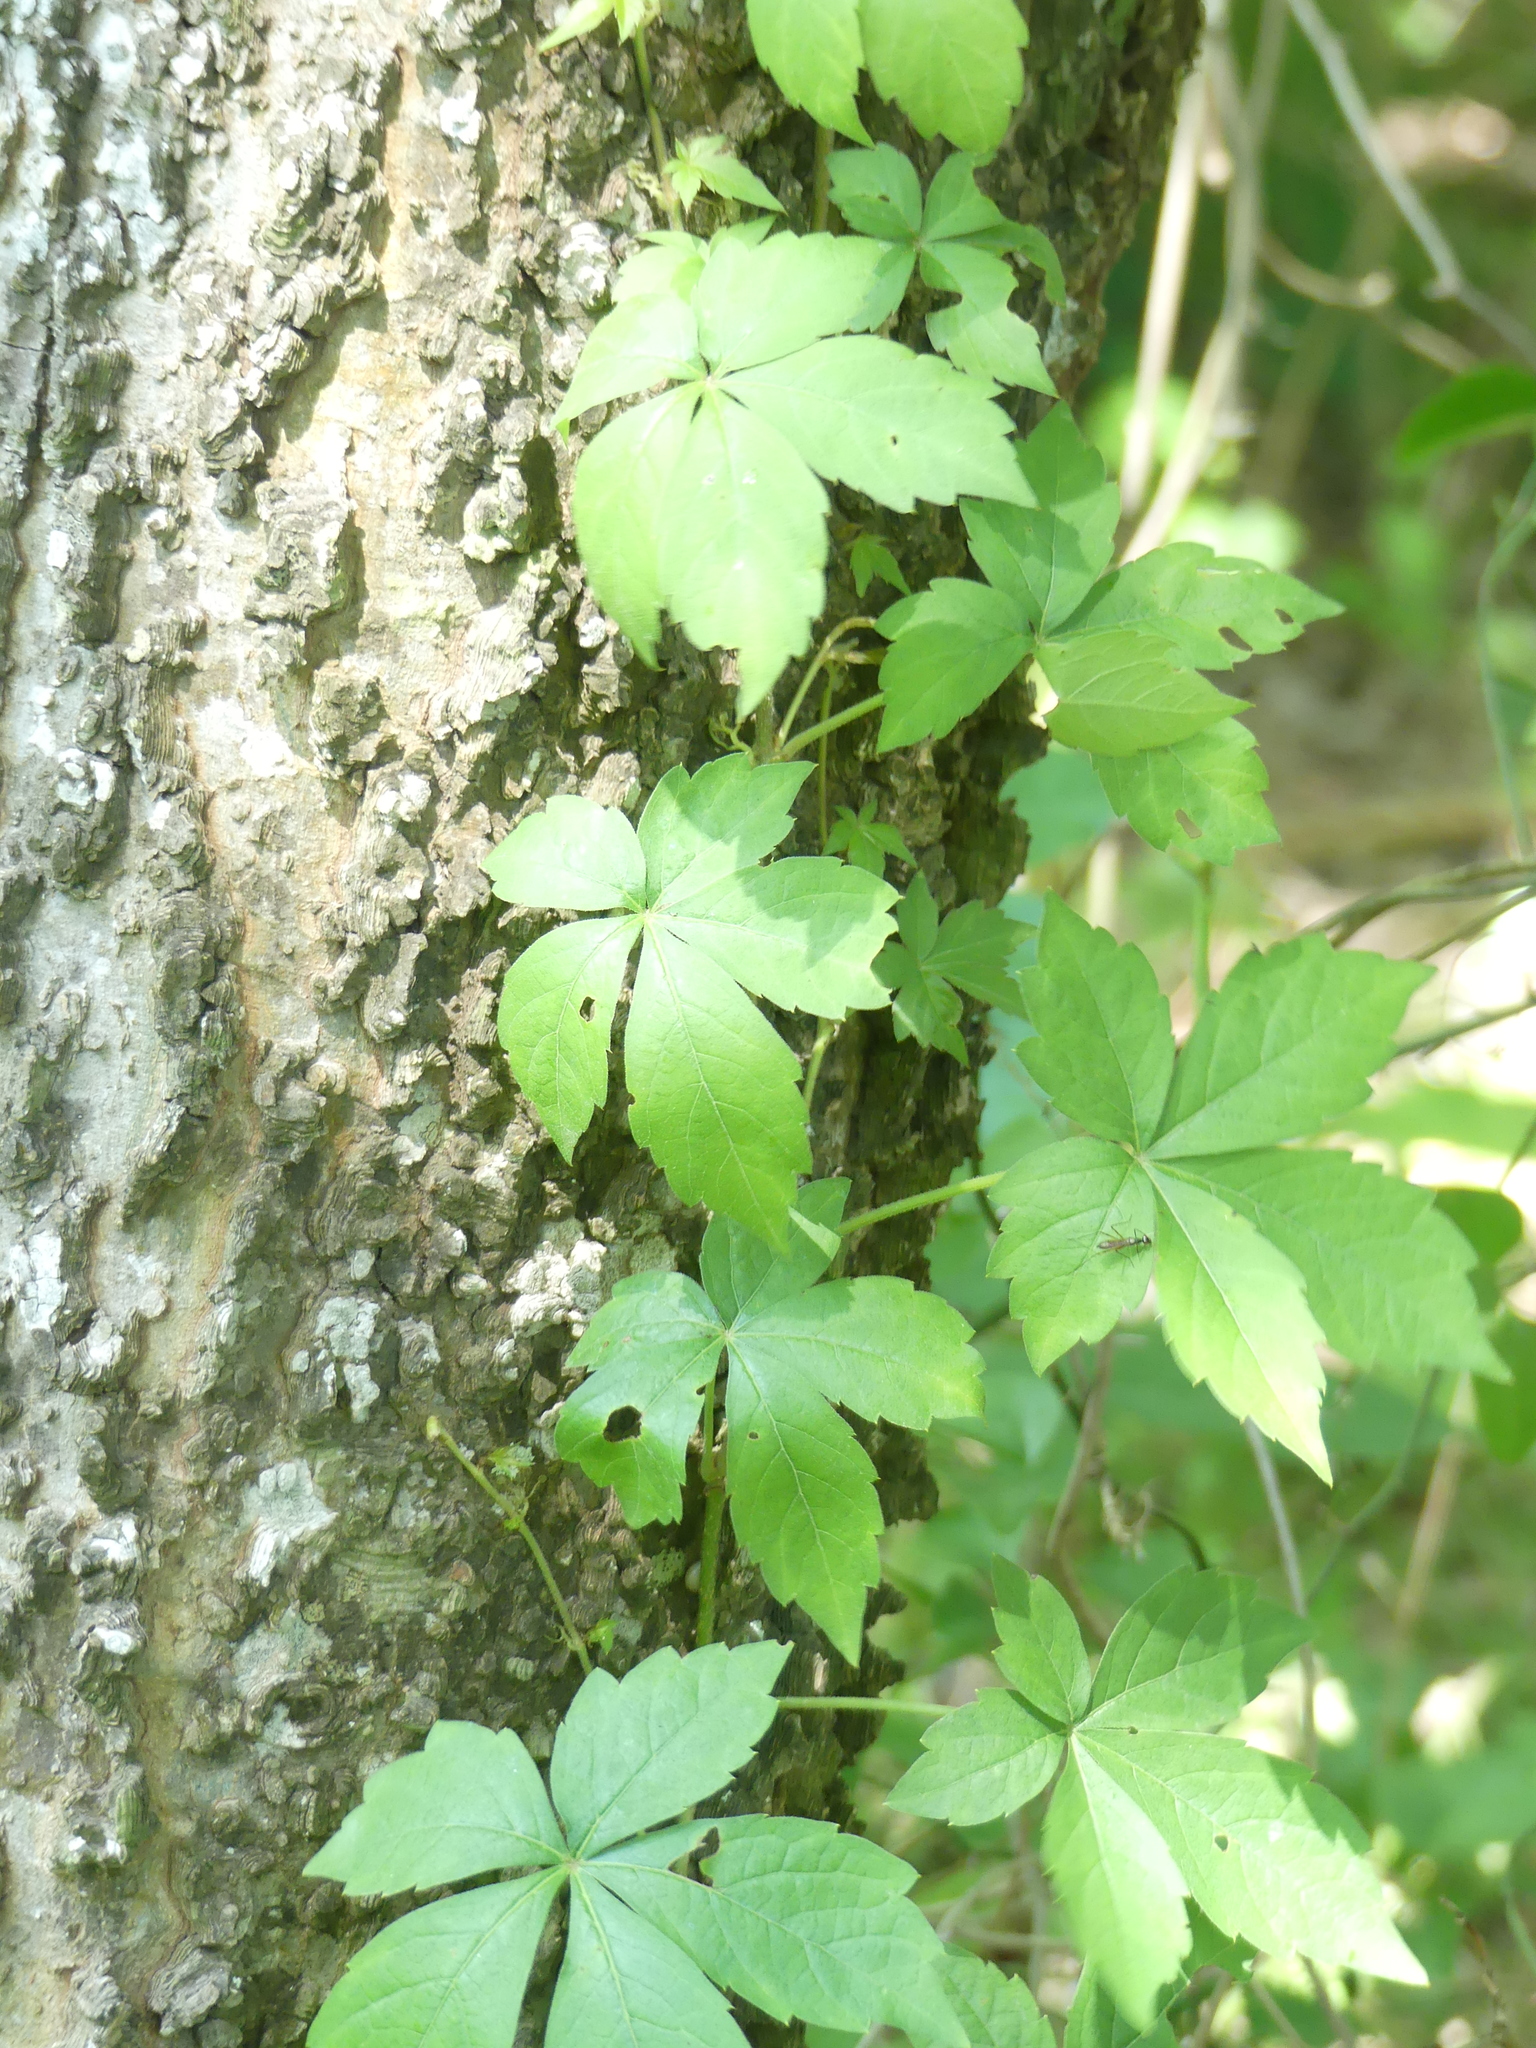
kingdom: Plantae
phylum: Tracheophyta
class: Magnoliopsida
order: Vitales
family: Vitaceae
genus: Parthenocissus
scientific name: Parthenocissus quinquefolia
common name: Virginia-creeper
